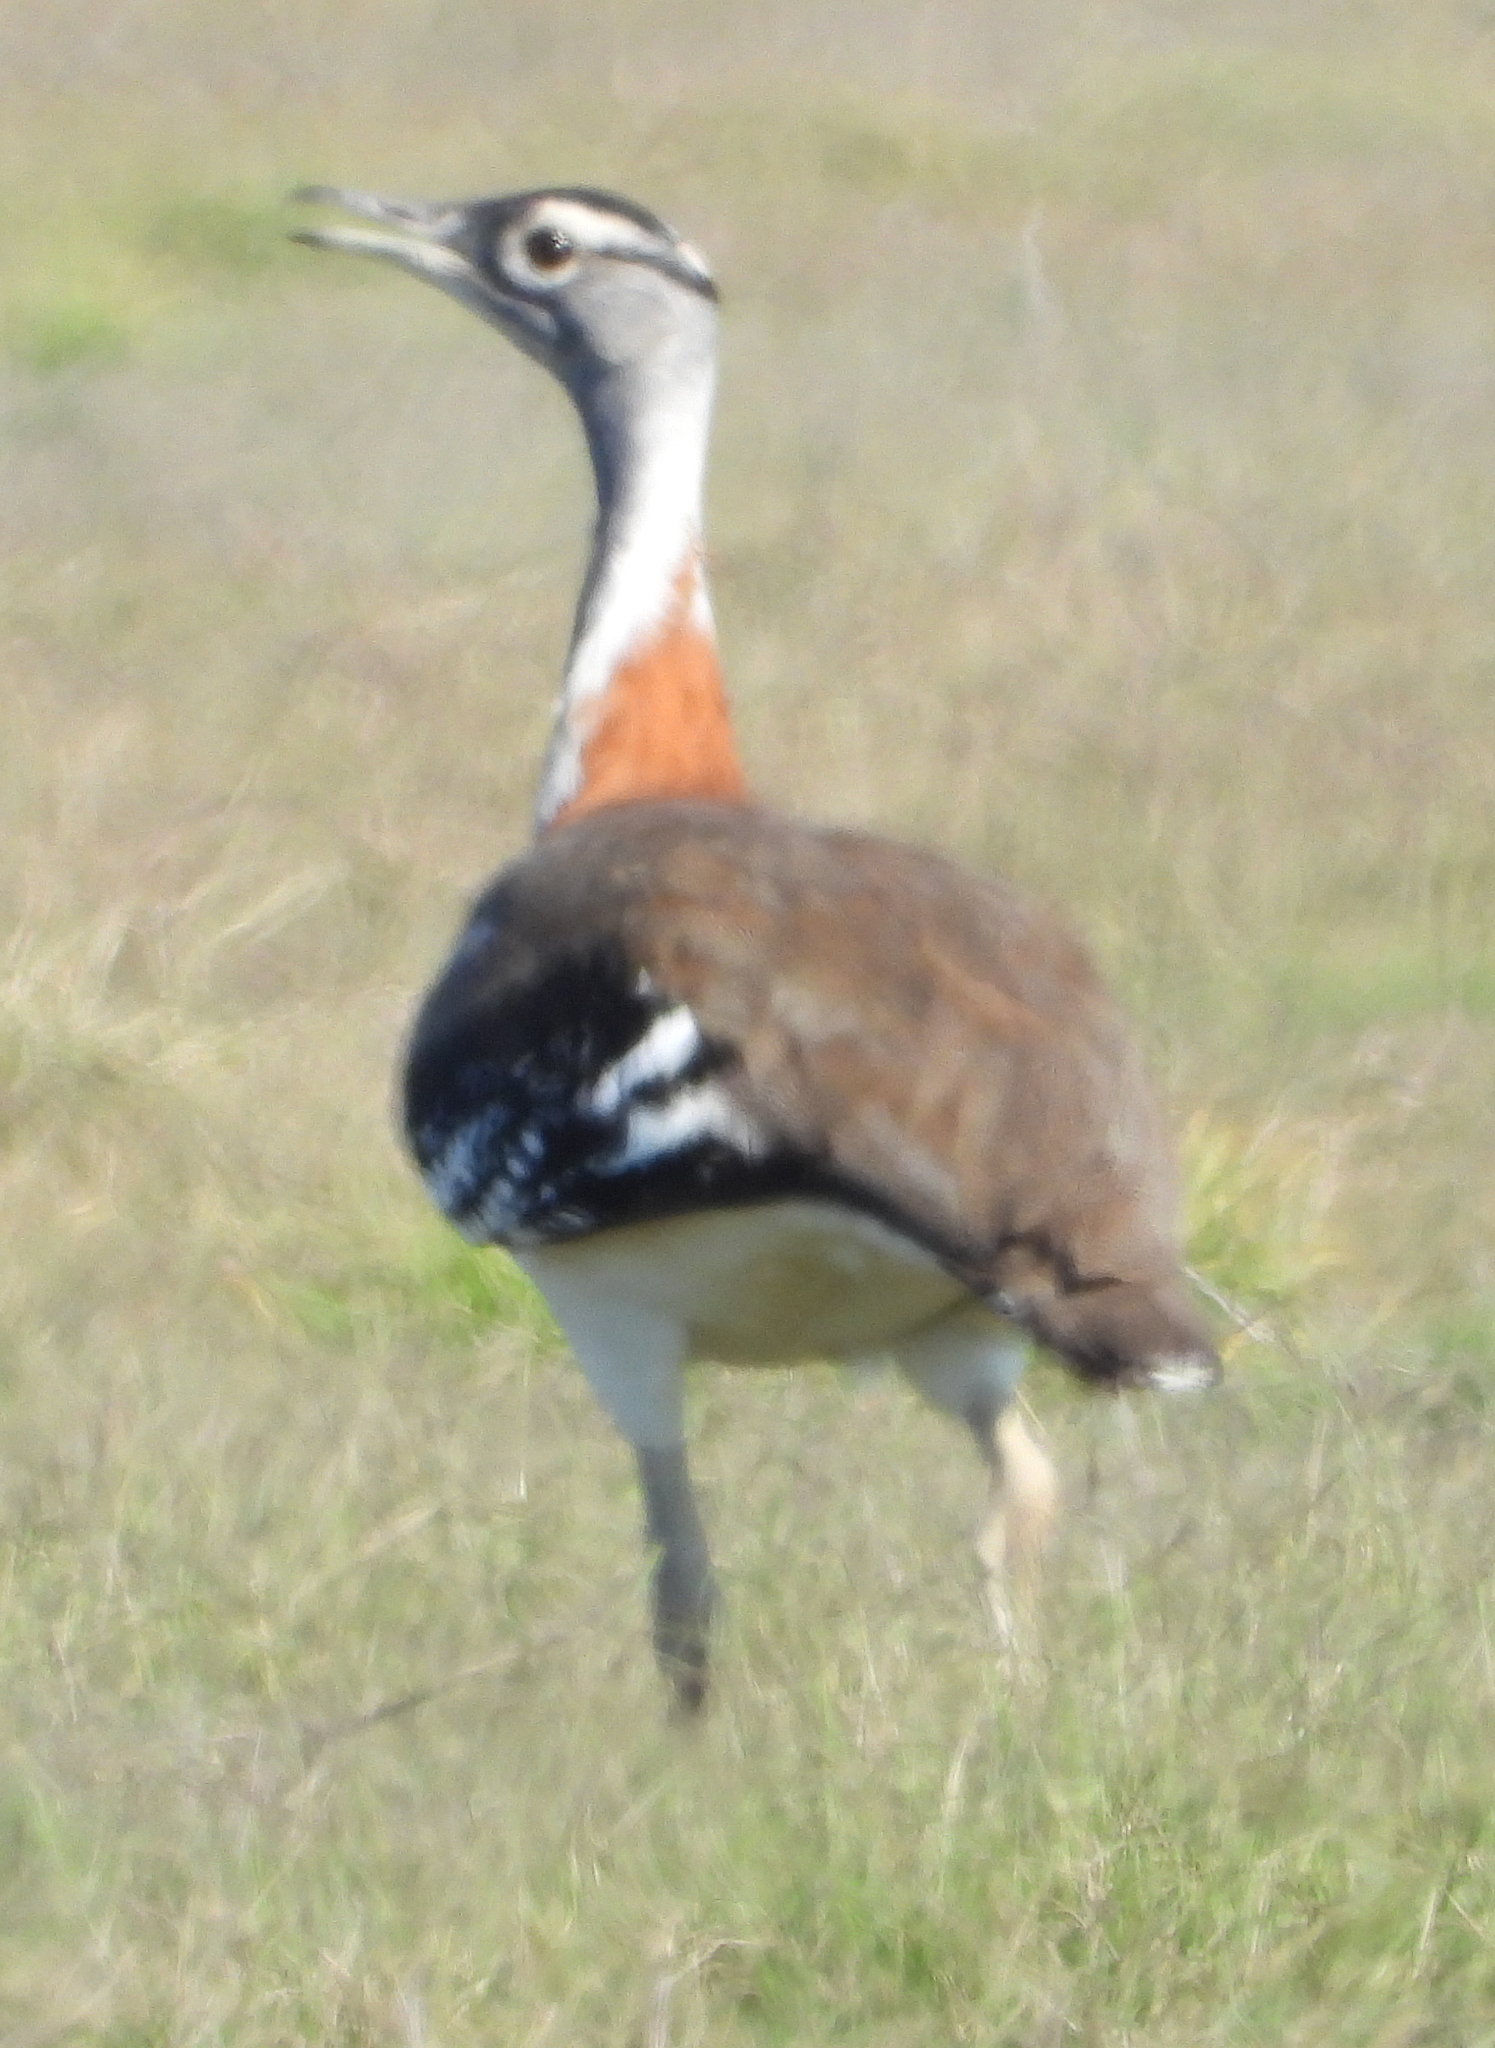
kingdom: Animalia
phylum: Chordata
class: Aves
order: Otidiformes
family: Otididae
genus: Neotis
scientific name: Neotis denhami
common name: Denham's bustard
